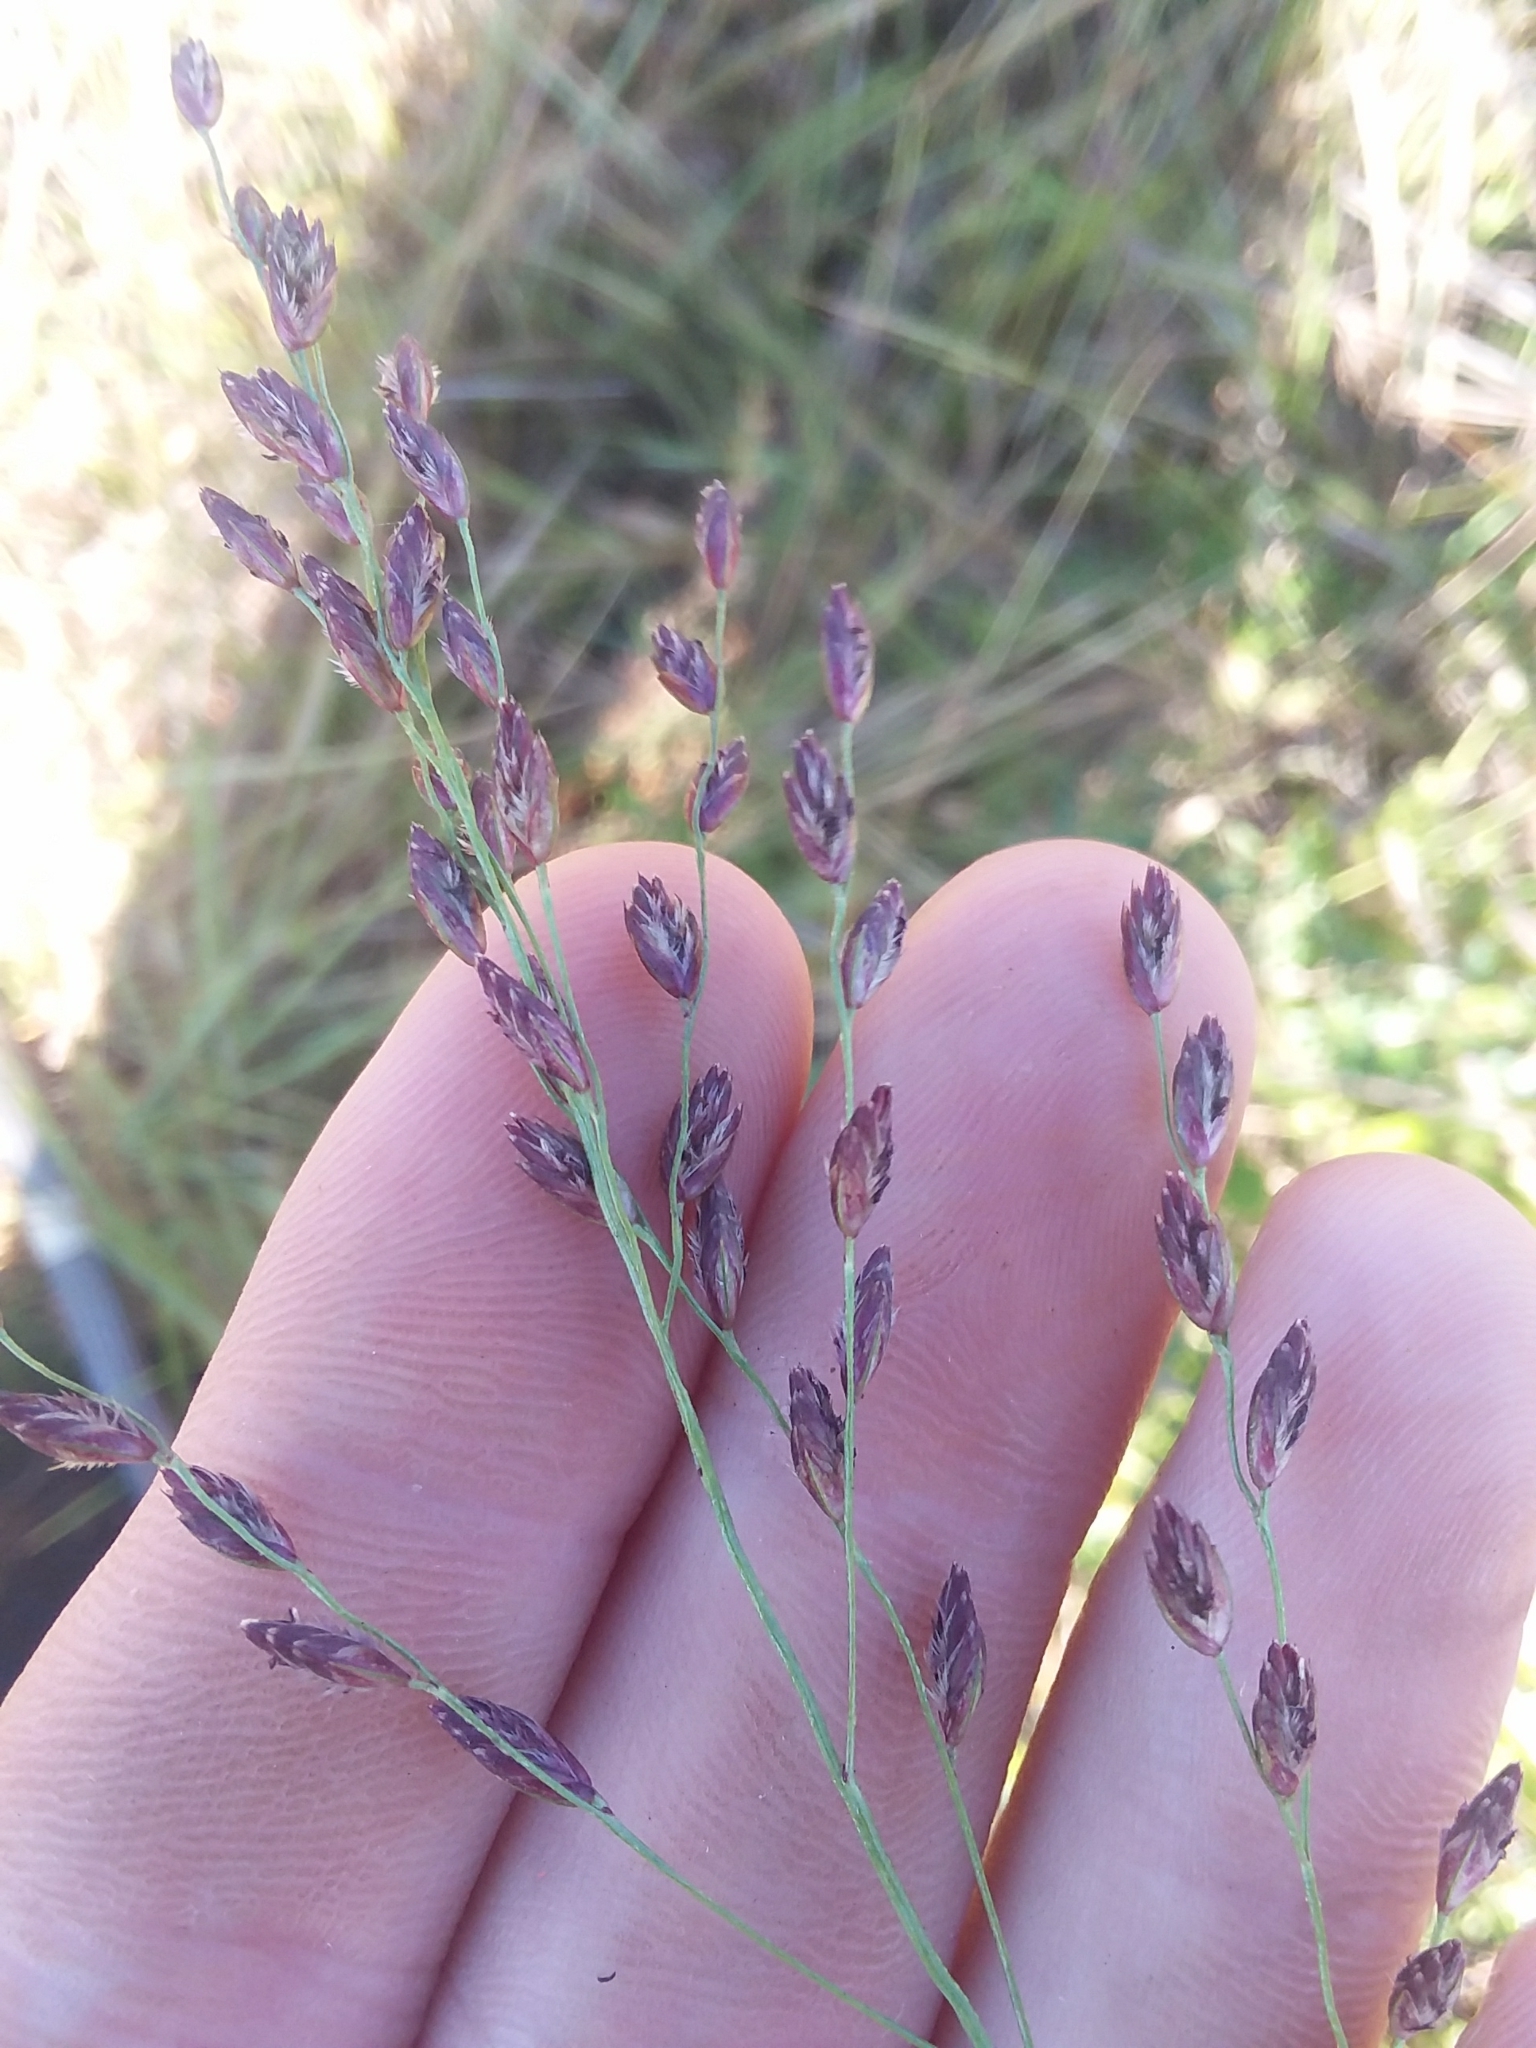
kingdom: Plantae
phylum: Tracheophyta
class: Liliopsida
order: Poales
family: Poaceae
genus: Tridens
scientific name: Tridens ambiguus
